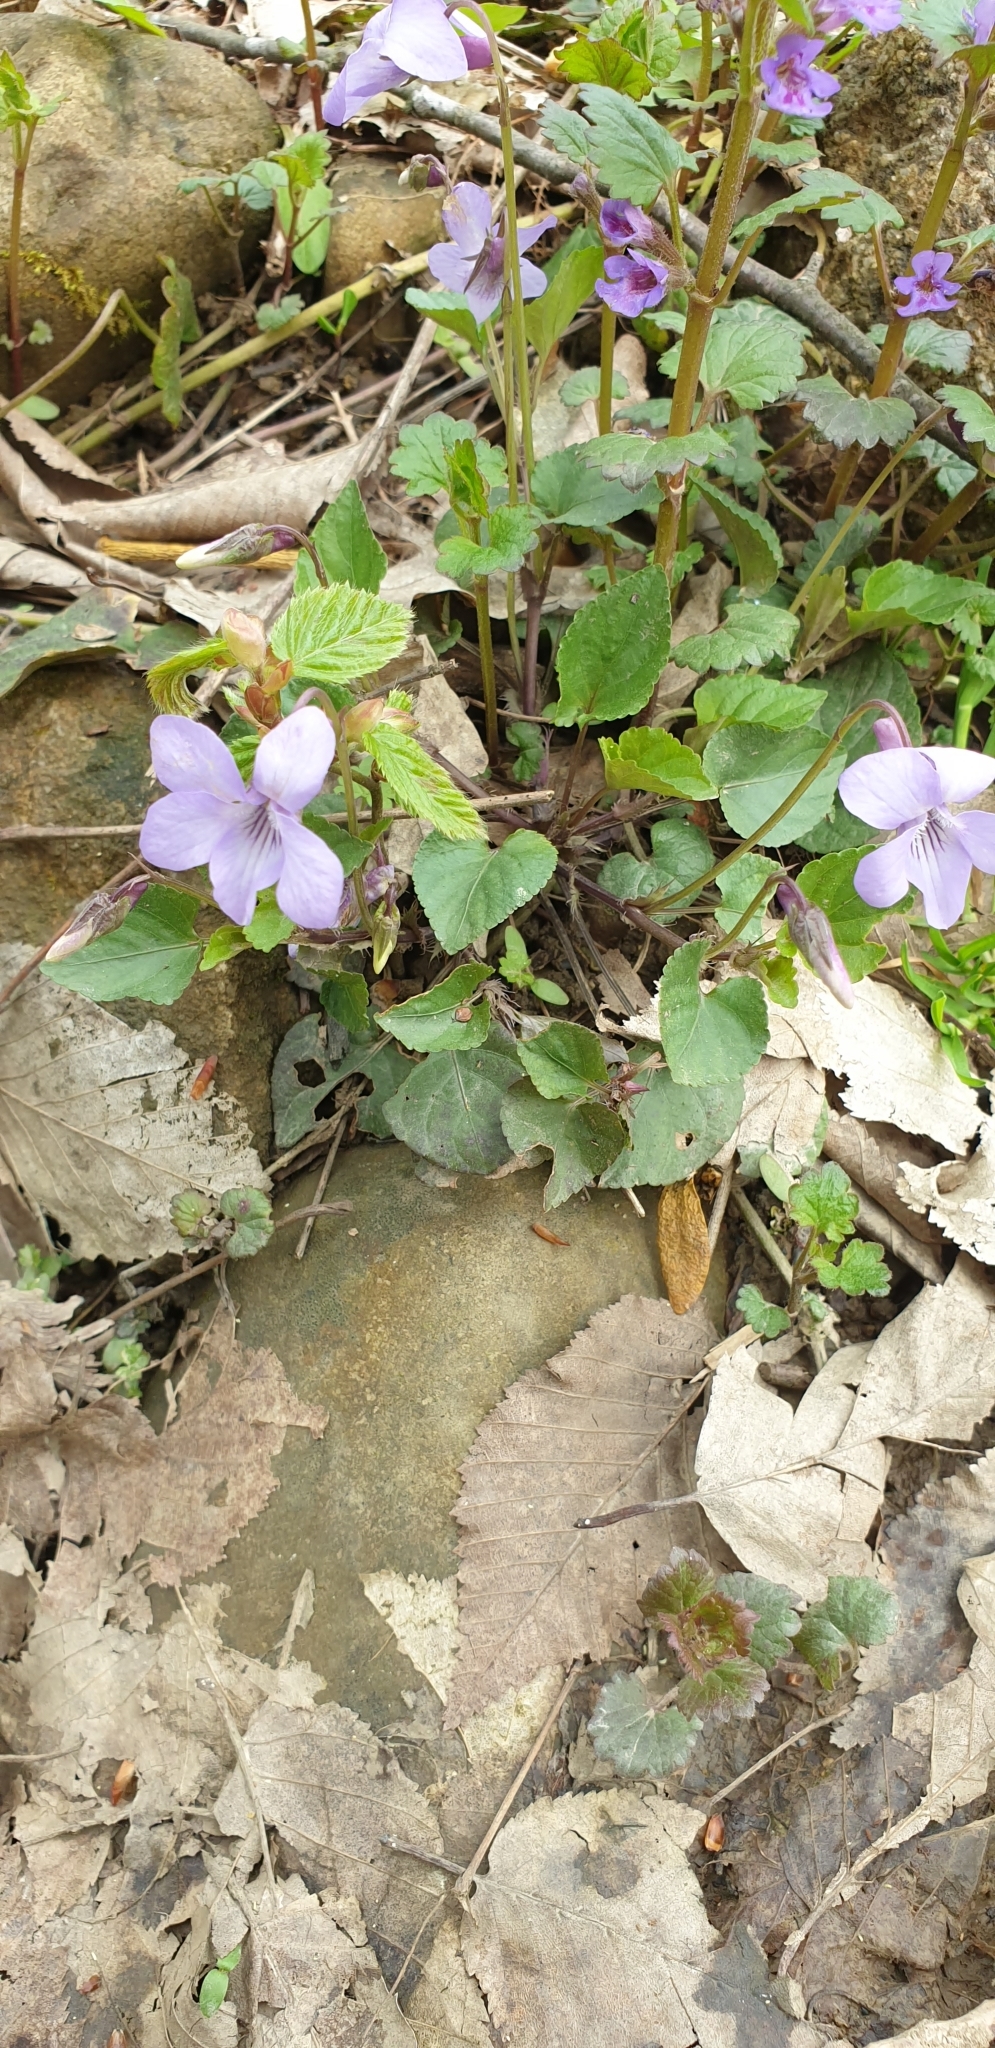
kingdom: Plantae
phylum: Tracheophyta
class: Magnoliopsida
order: Malpighiales
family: Violaceae
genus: Viola
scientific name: Viola reichenbachiana
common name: Early dog-violet
